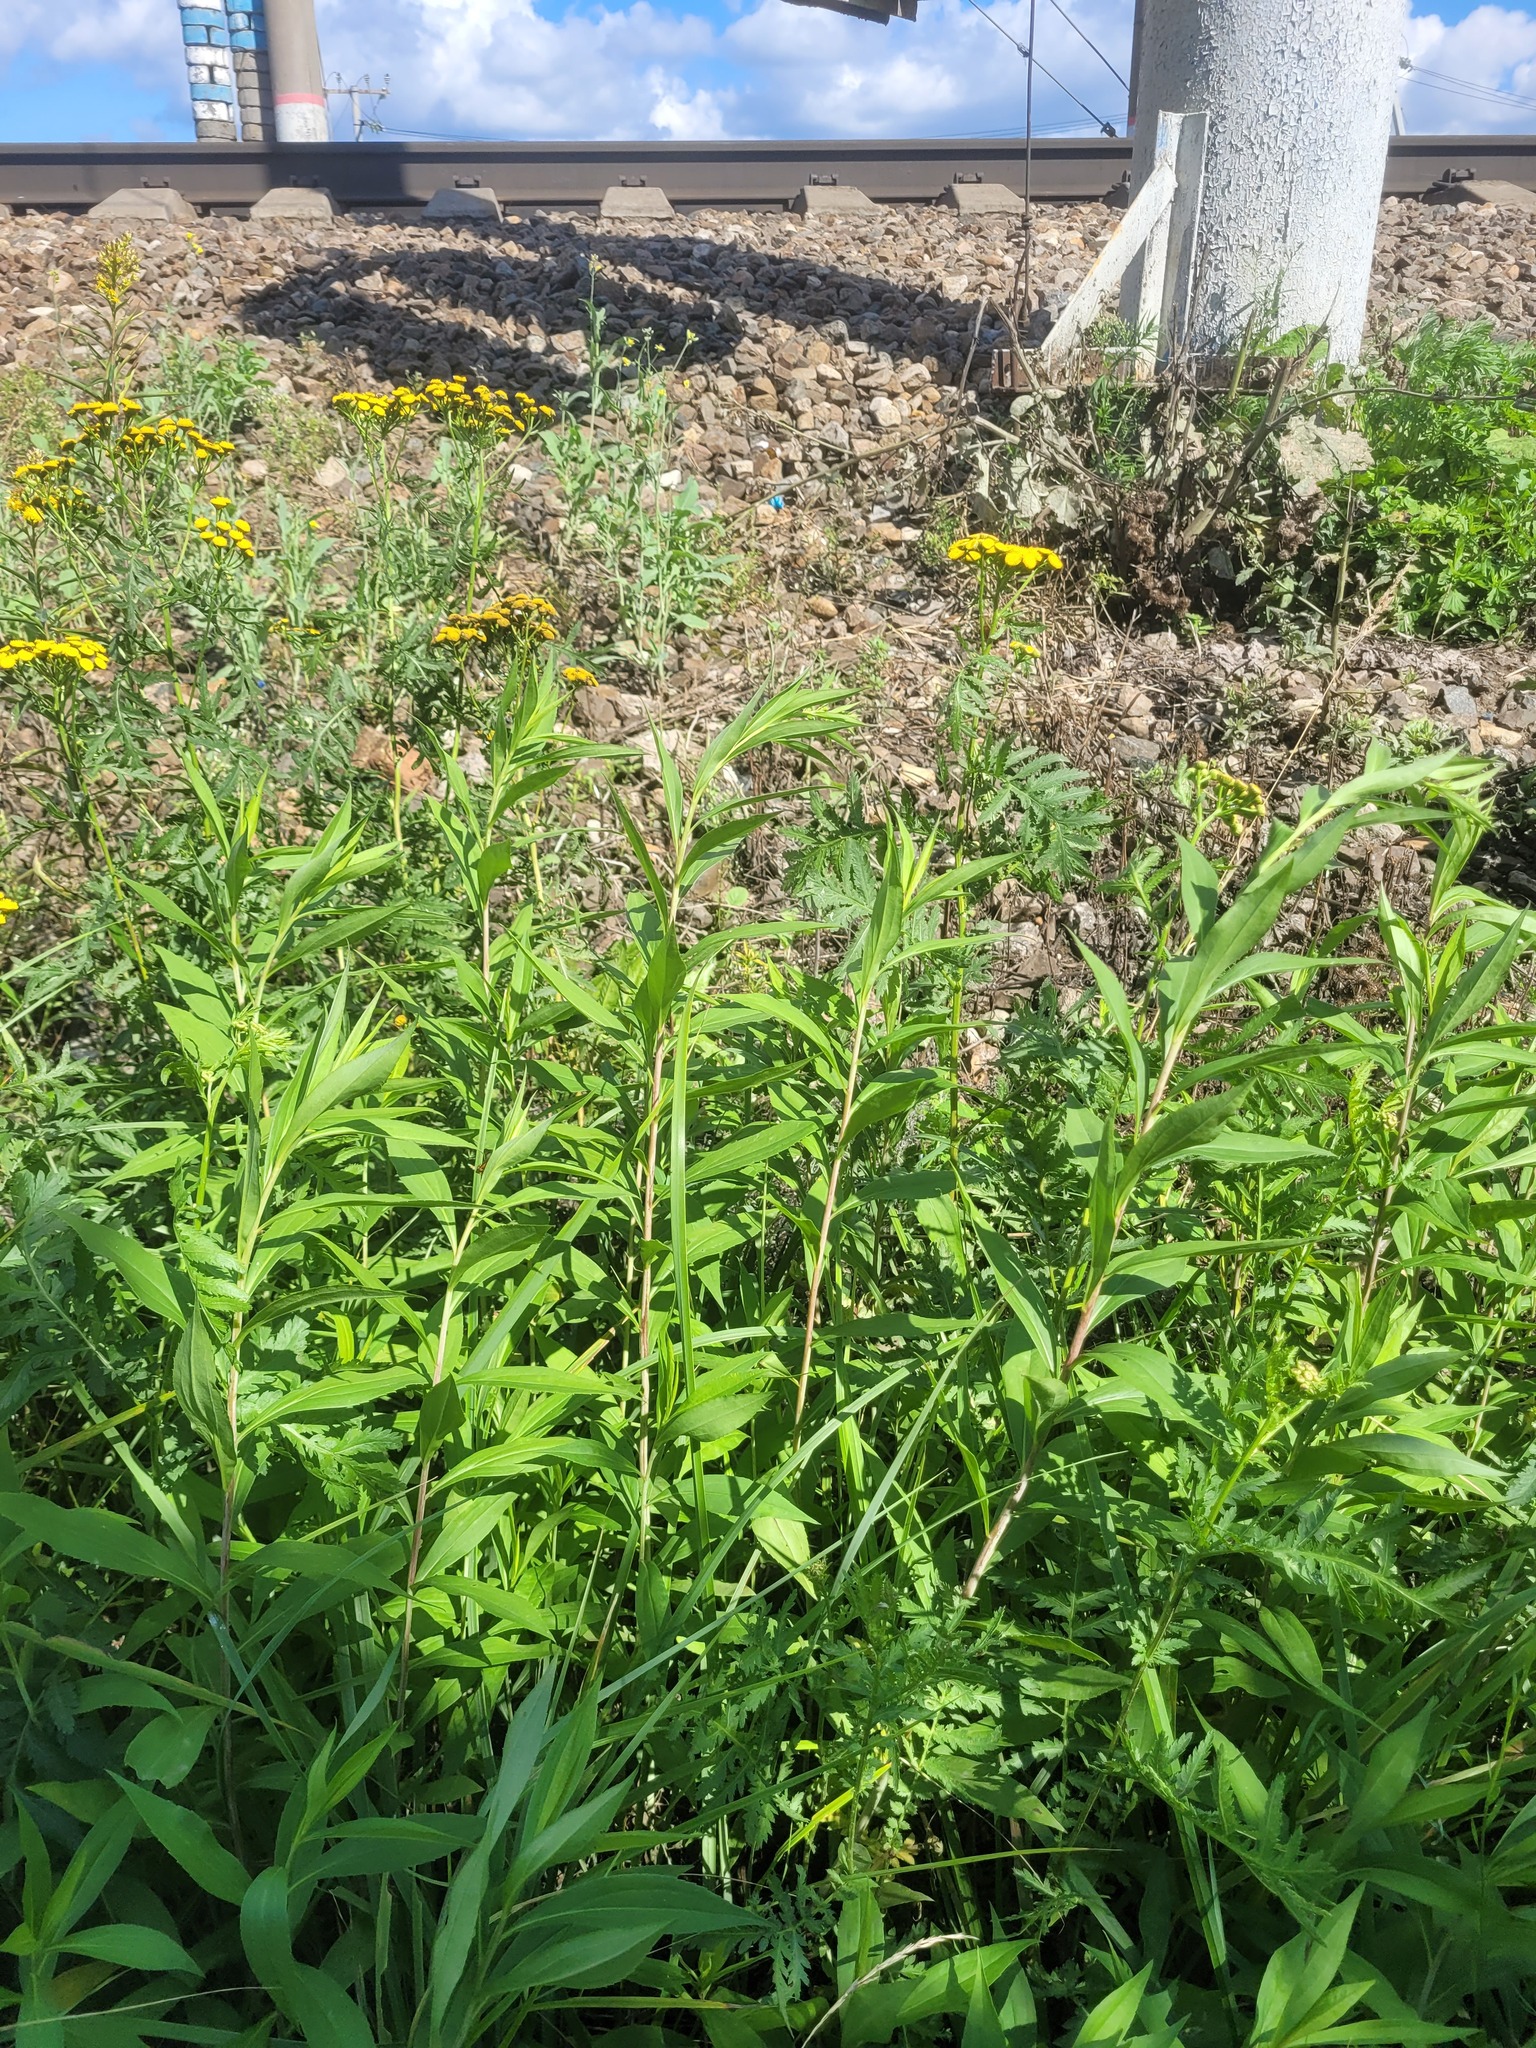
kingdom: Plantae
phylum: Tracheophyta
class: Magnoliopsida
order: Asterales
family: Asteraceae
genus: Solidago
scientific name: Solidago gigantea
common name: Giant goldenrod
